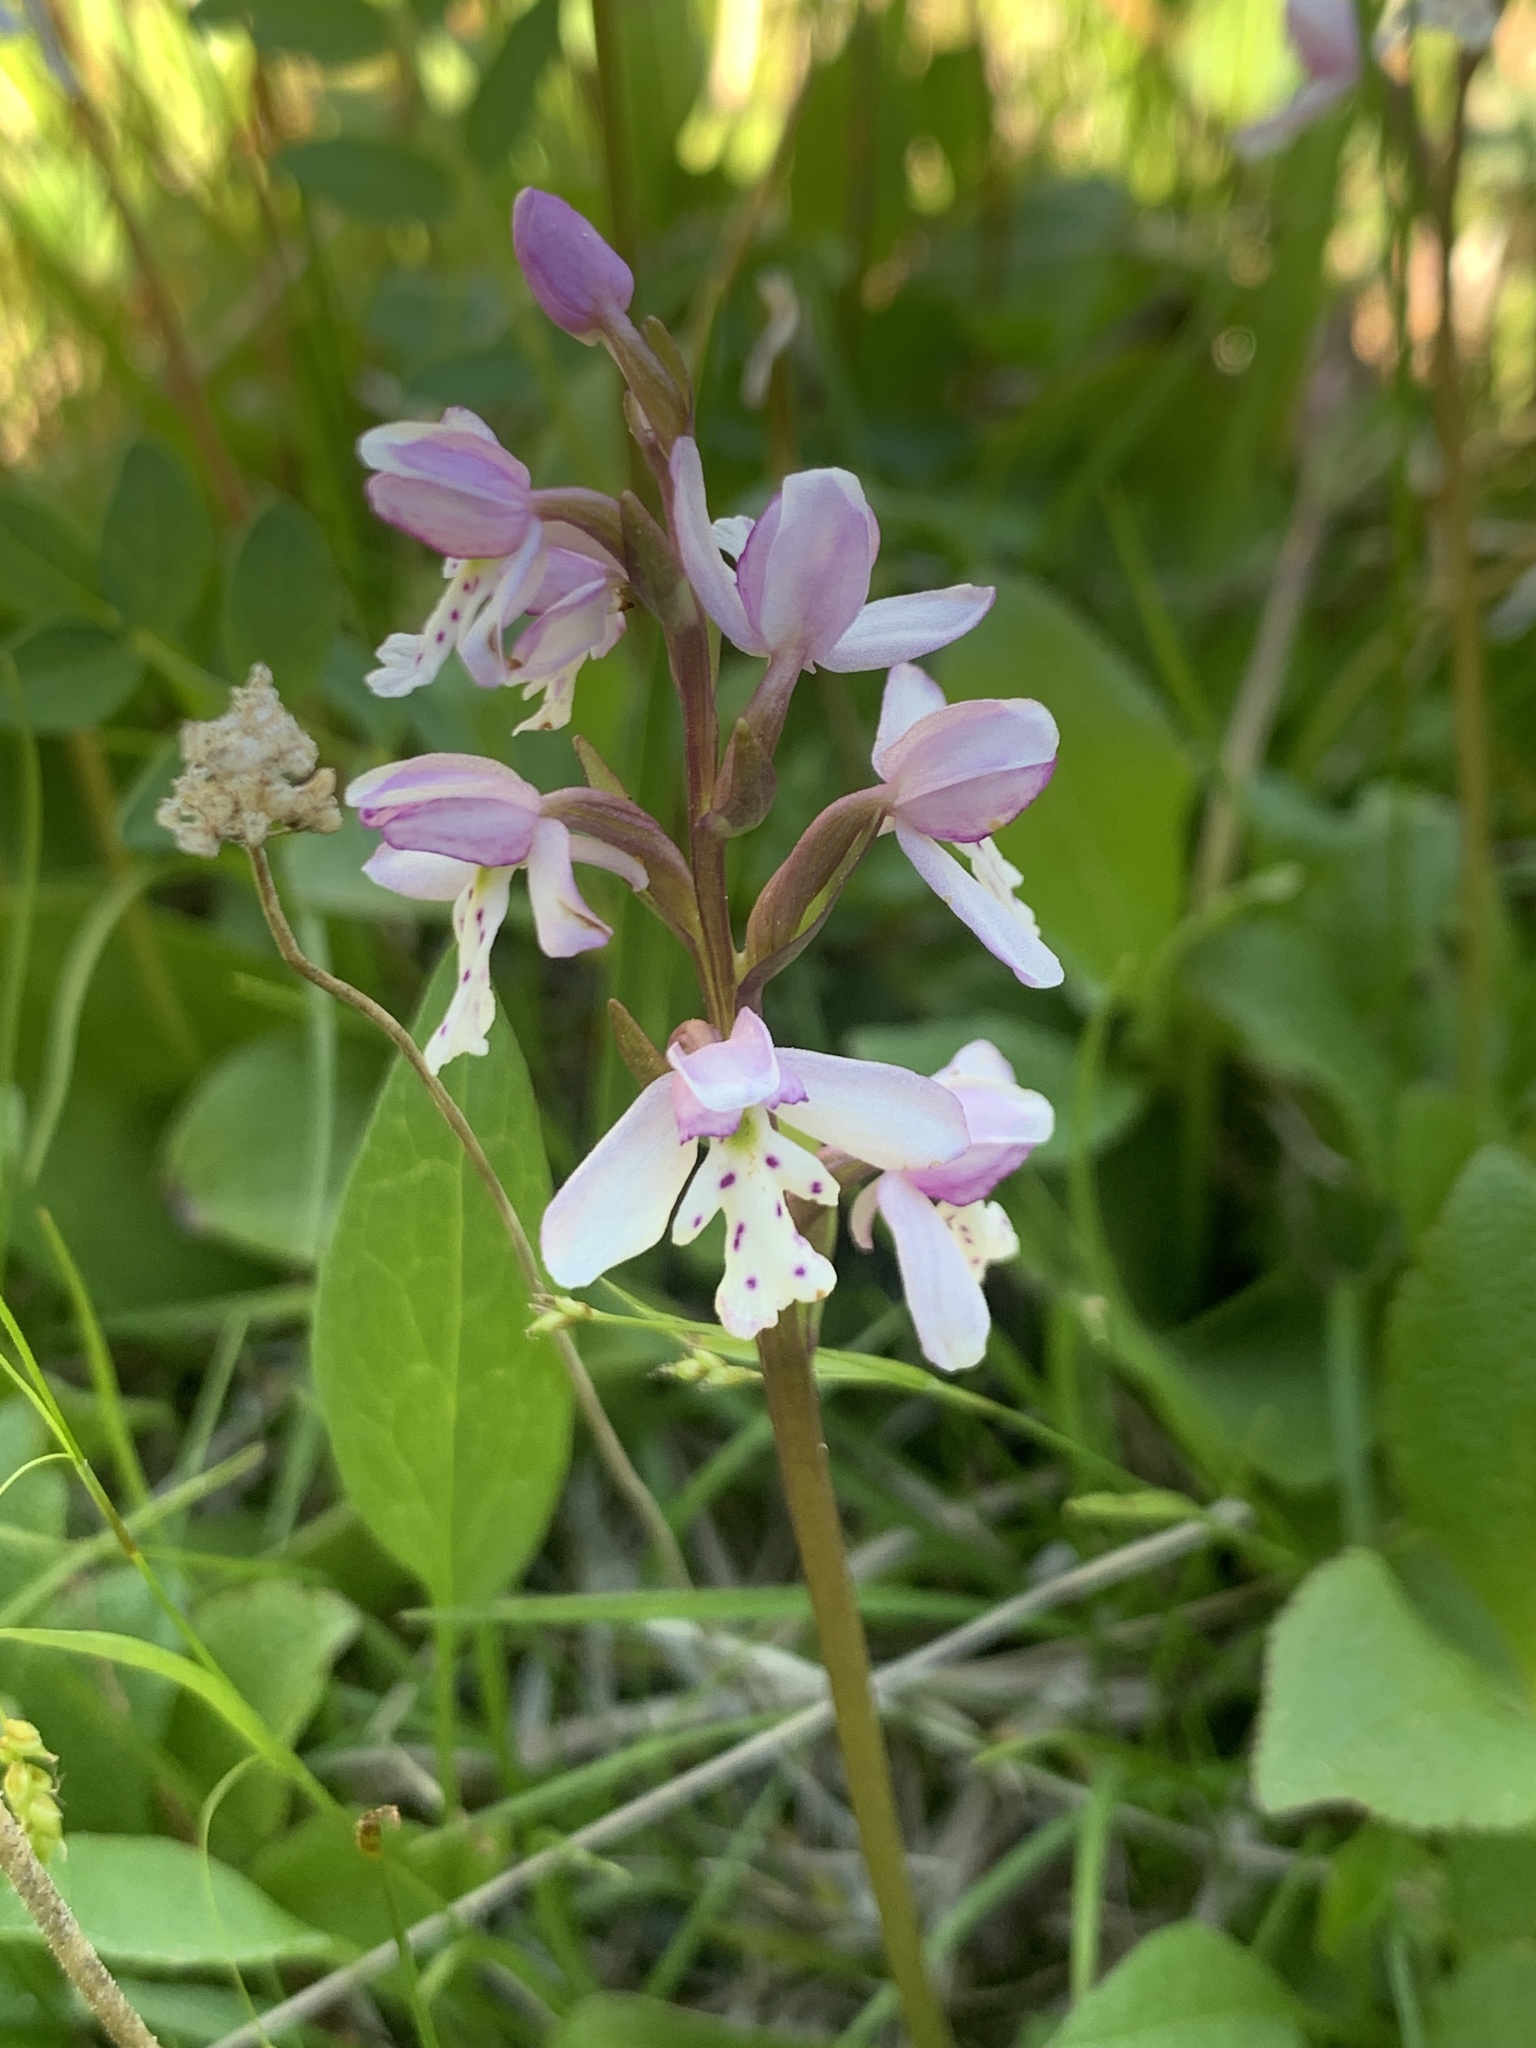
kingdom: Plantae
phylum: Tracheophyta
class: Liliopsida
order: Asparagales
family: Orchidaceae
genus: Galearis
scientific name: Galearis rotundifolia
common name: One-leaved orchis
